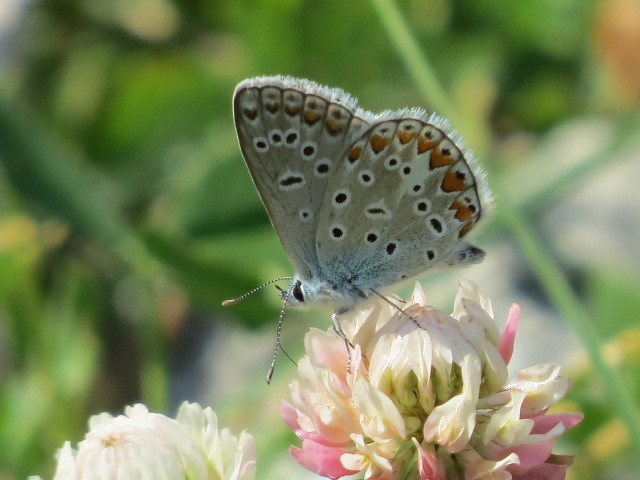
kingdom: Animalia
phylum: Arthropoda
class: Insecta
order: Lepidoptera
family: Lycaenidae
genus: Polyommatus
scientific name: Polyommatus icarus
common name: Common blue
